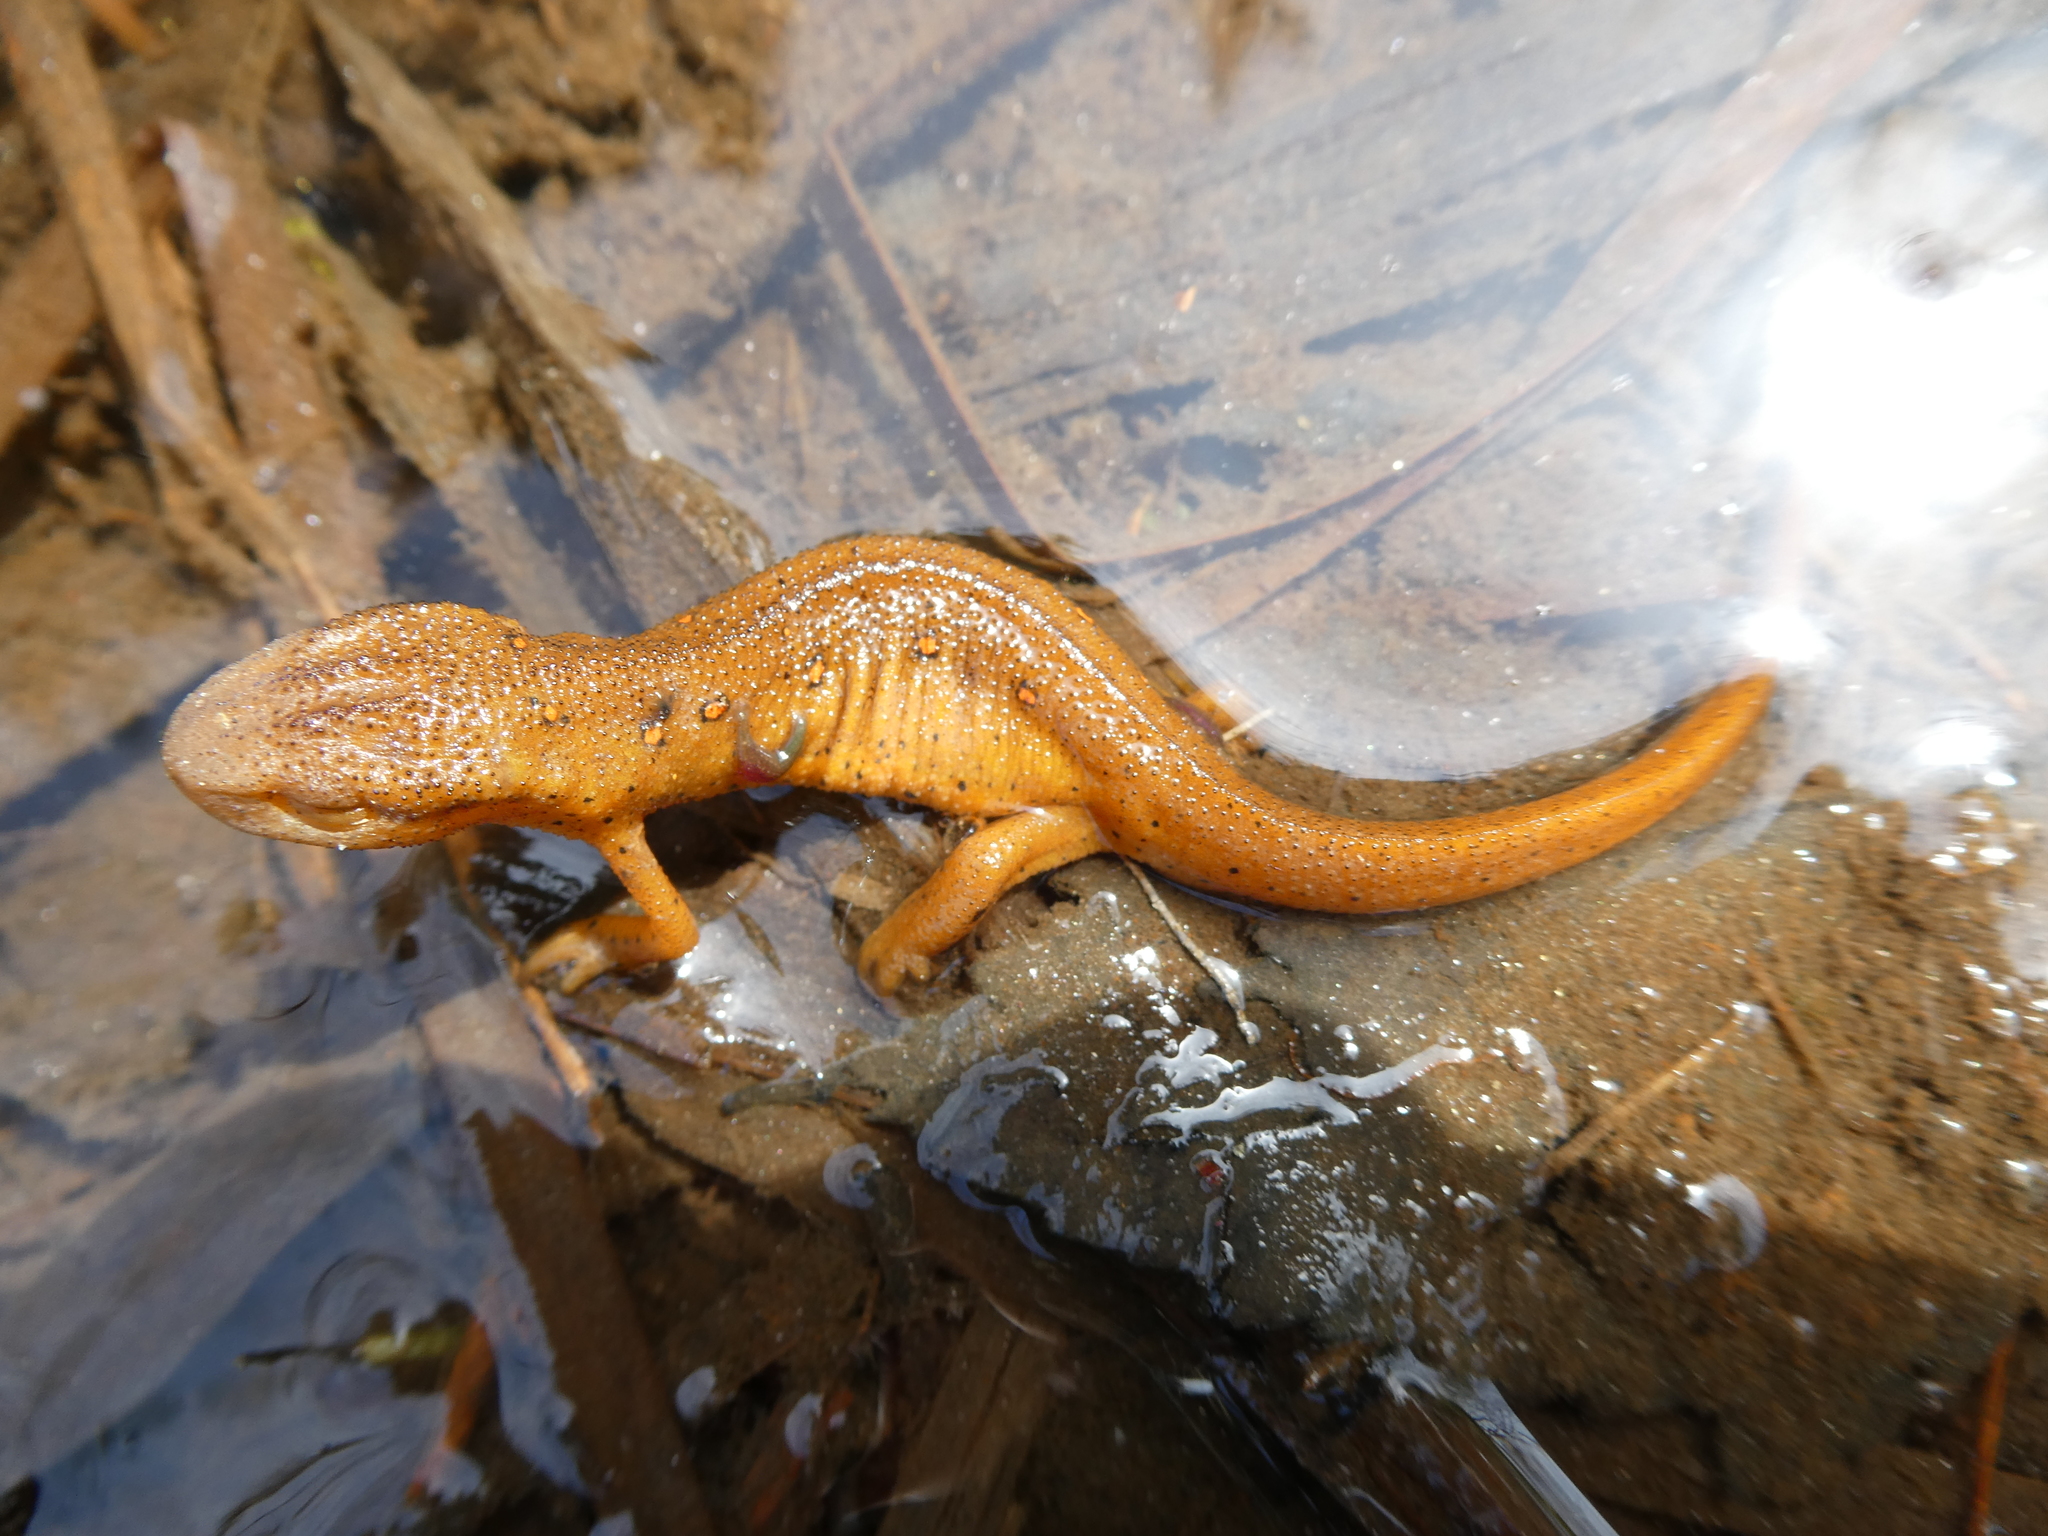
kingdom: Animalia
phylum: Chordata
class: Amphibia
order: Caudata
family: Salamandridae
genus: Notophthalmus
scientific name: Notophthalmus viridescens
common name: Eastern newt
